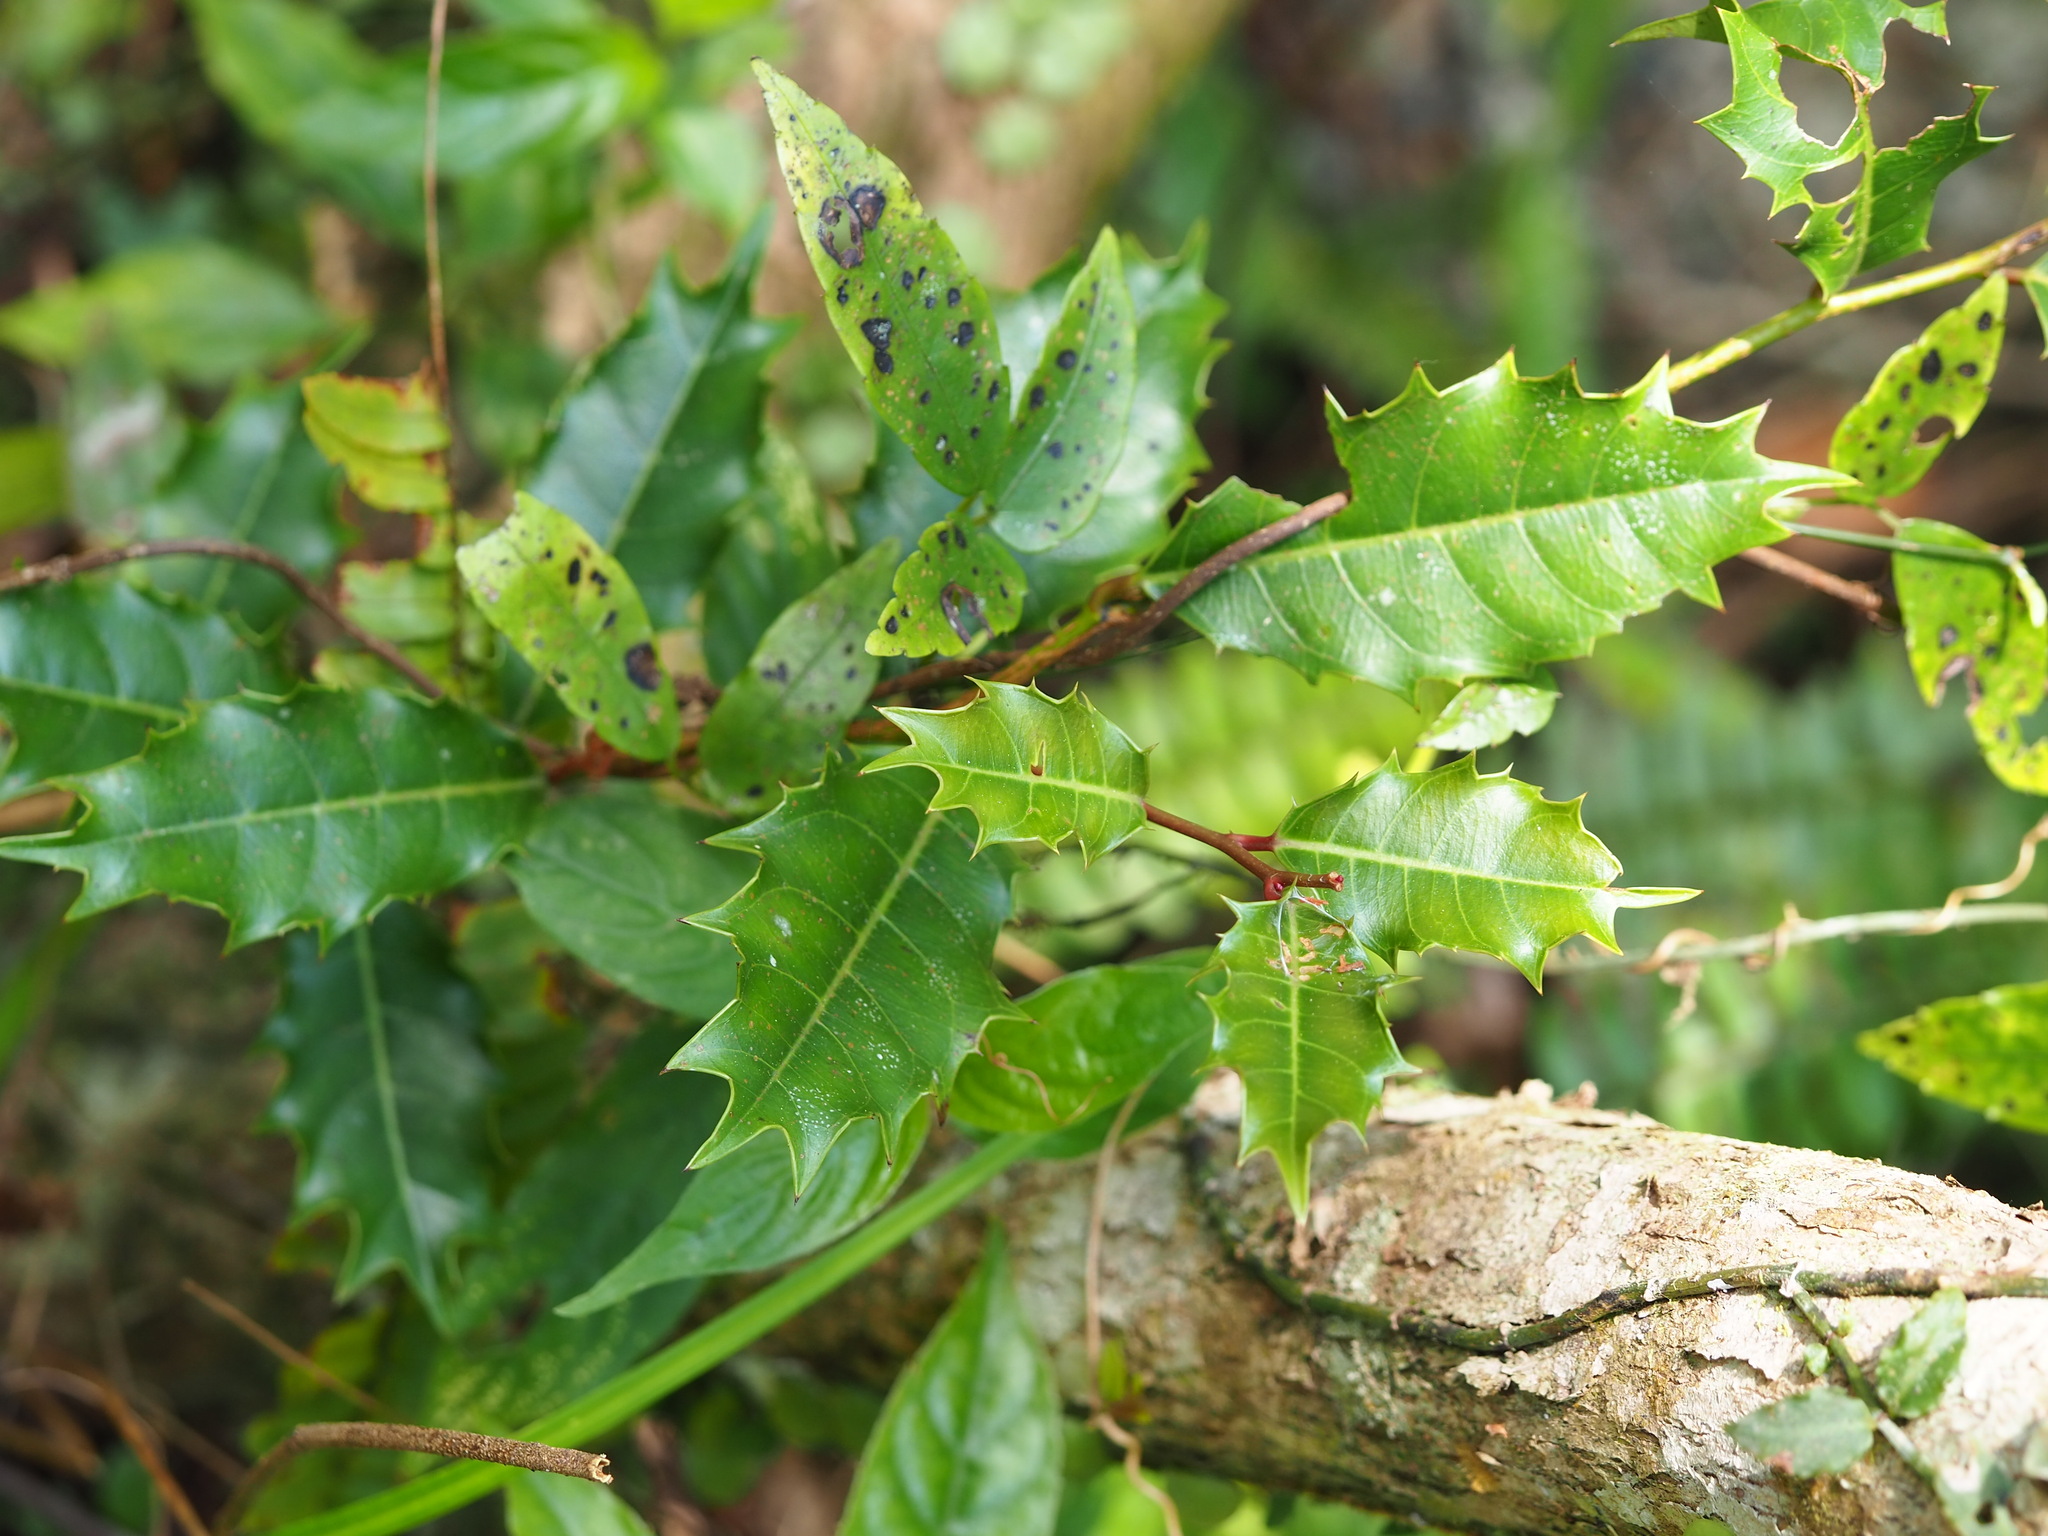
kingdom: Plantae
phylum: Tracheophyta
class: Magnoliopsida
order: Saxifragales
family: Iteaceae
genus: Itea
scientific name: Itea oldhamii
